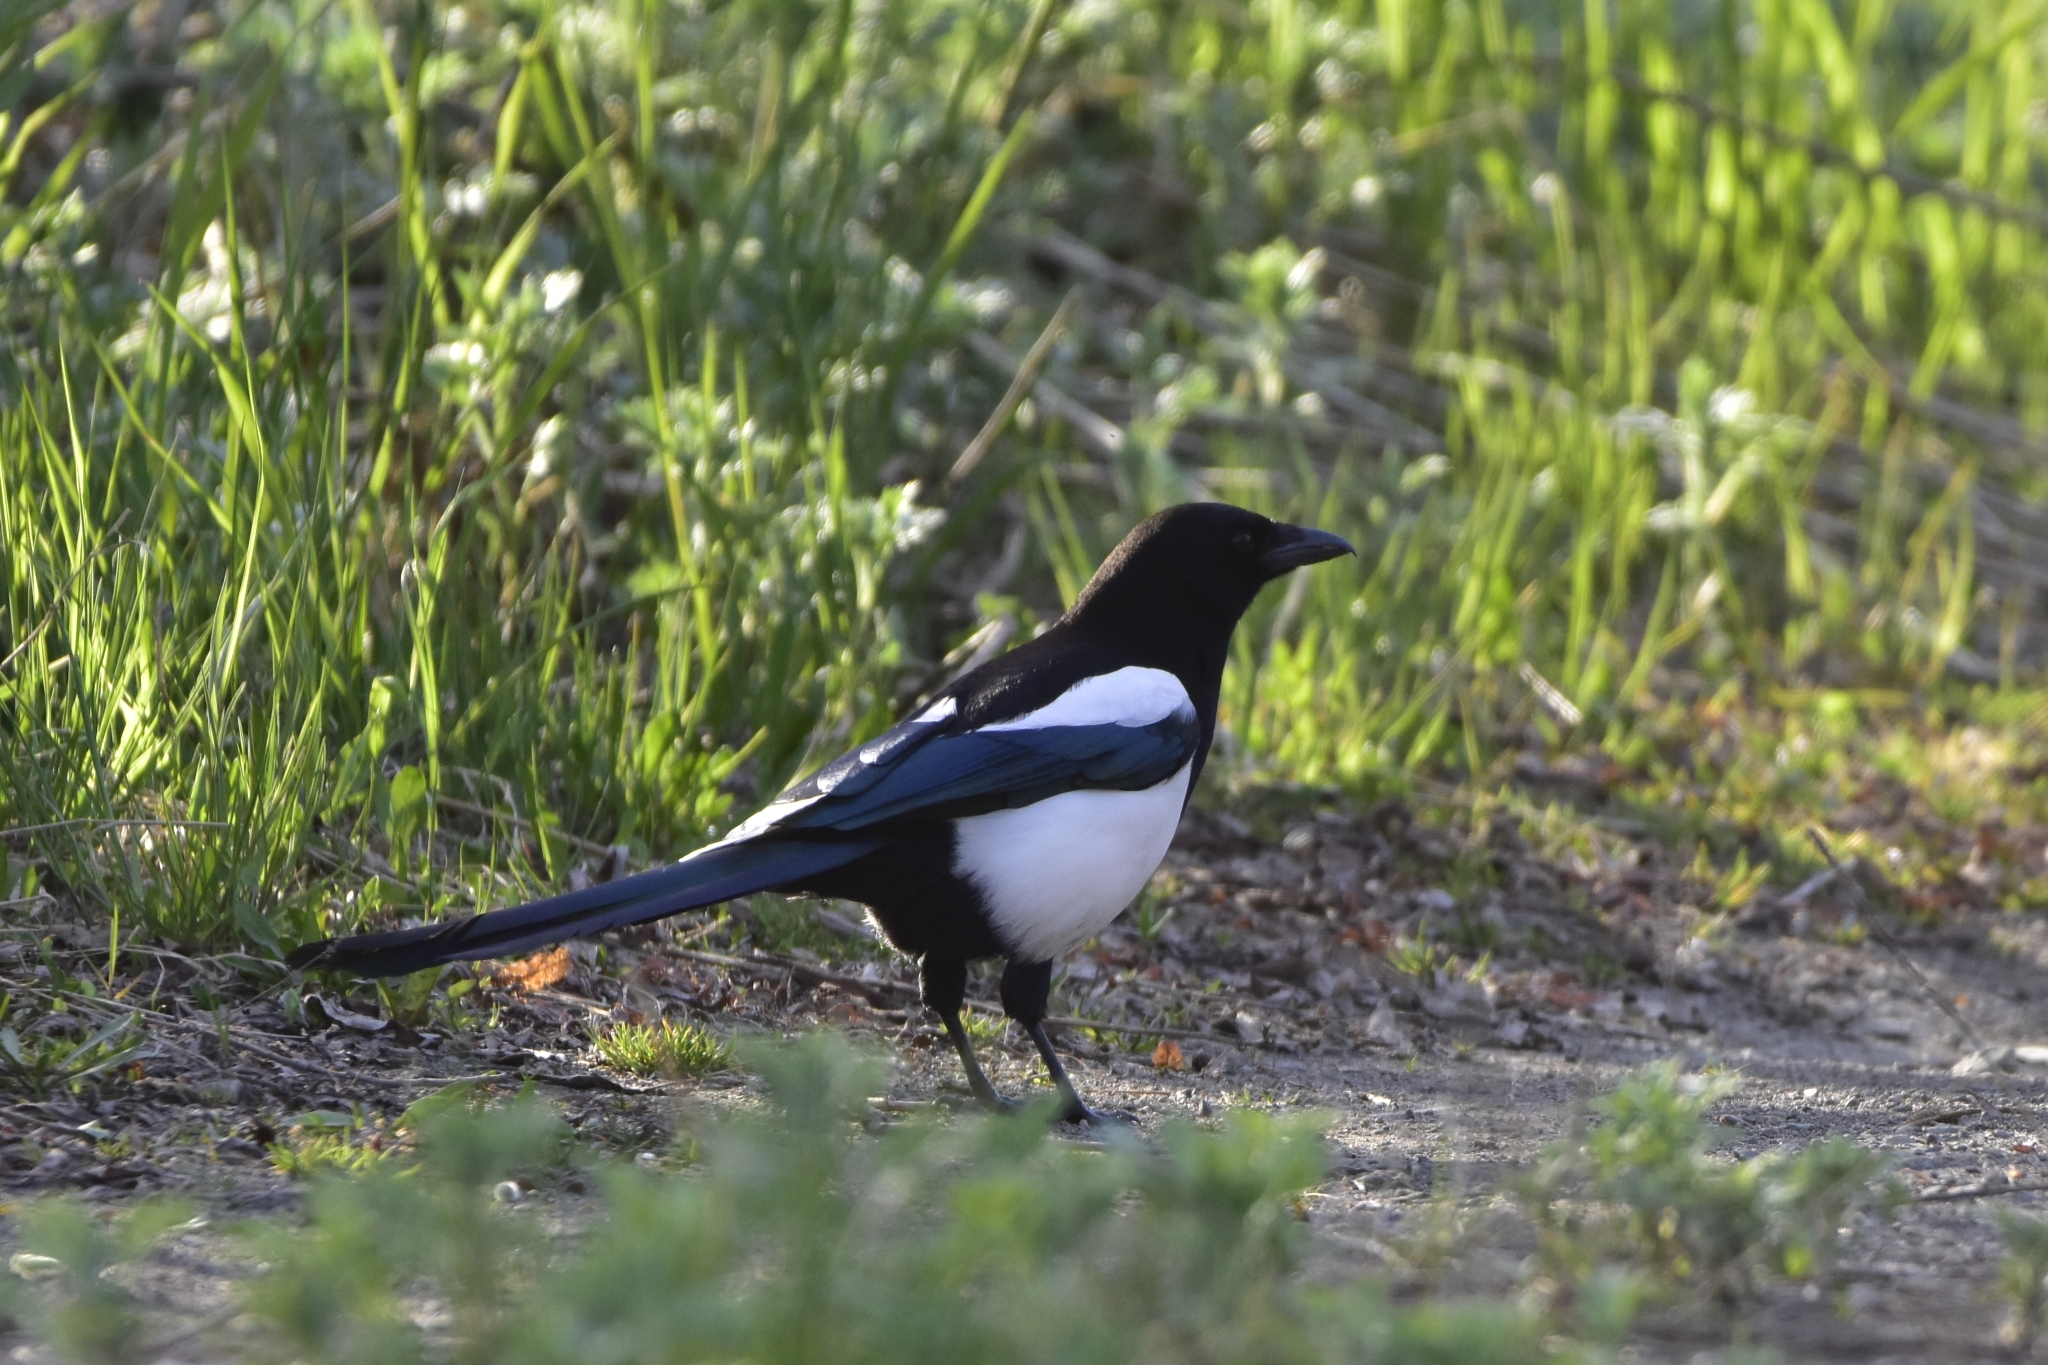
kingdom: Animalia
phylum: Chordata
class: Aves
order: Passeriformes
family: Corvidae
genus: Pica
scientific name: Pica pica
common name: Eurasian magpie
